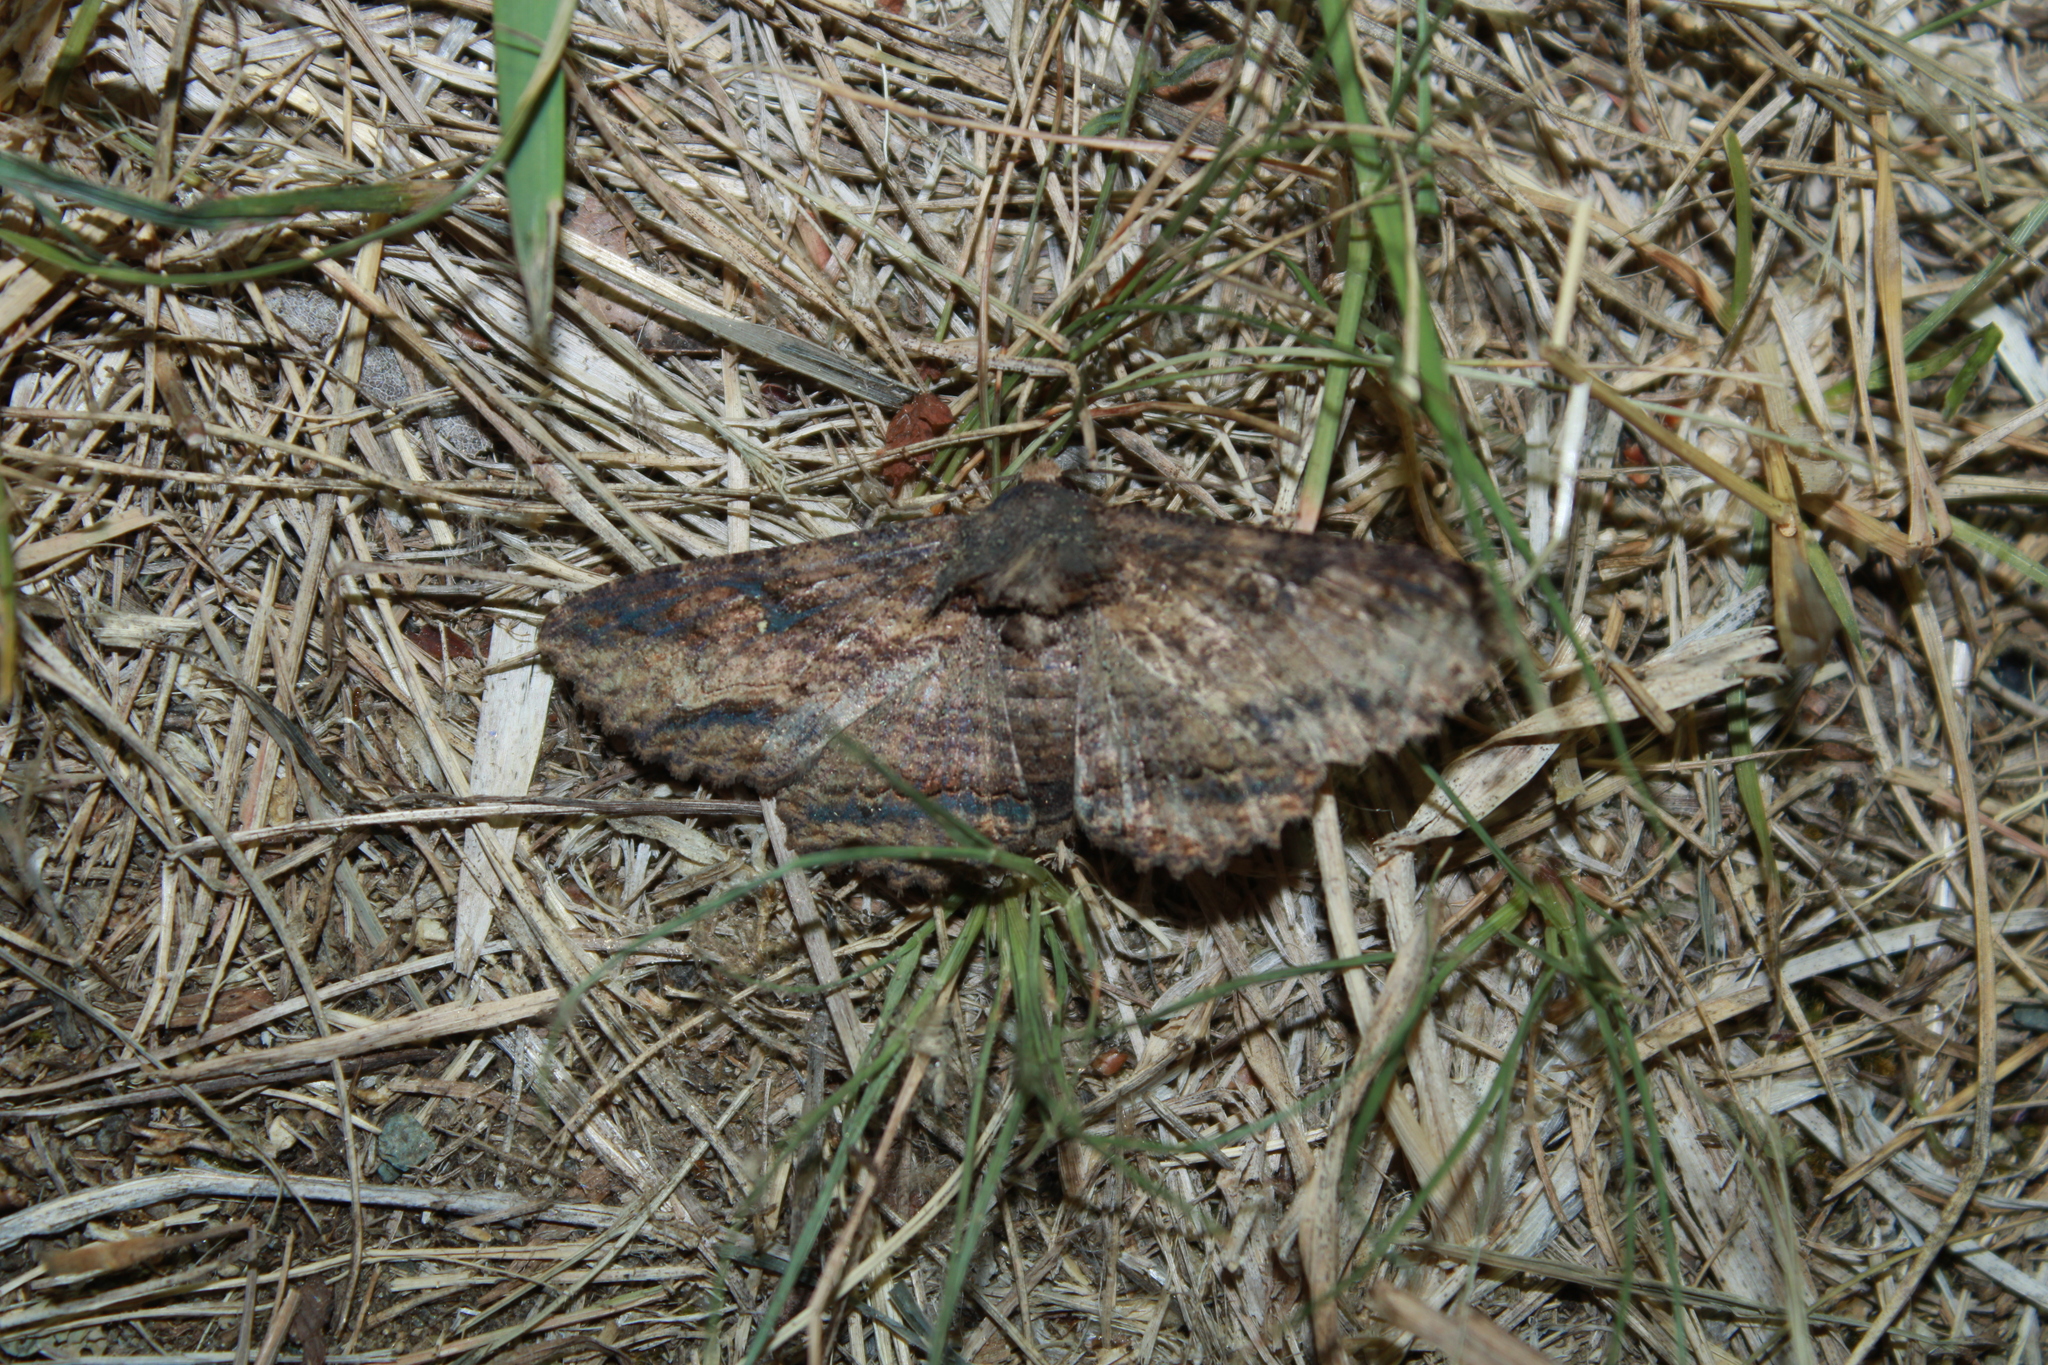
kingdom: Animalia
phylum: Arthropoda
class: Insecta
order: Lepidoptera
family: Erebidae
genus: Zale
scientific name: Zale lunata
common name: Lunate zale moth
